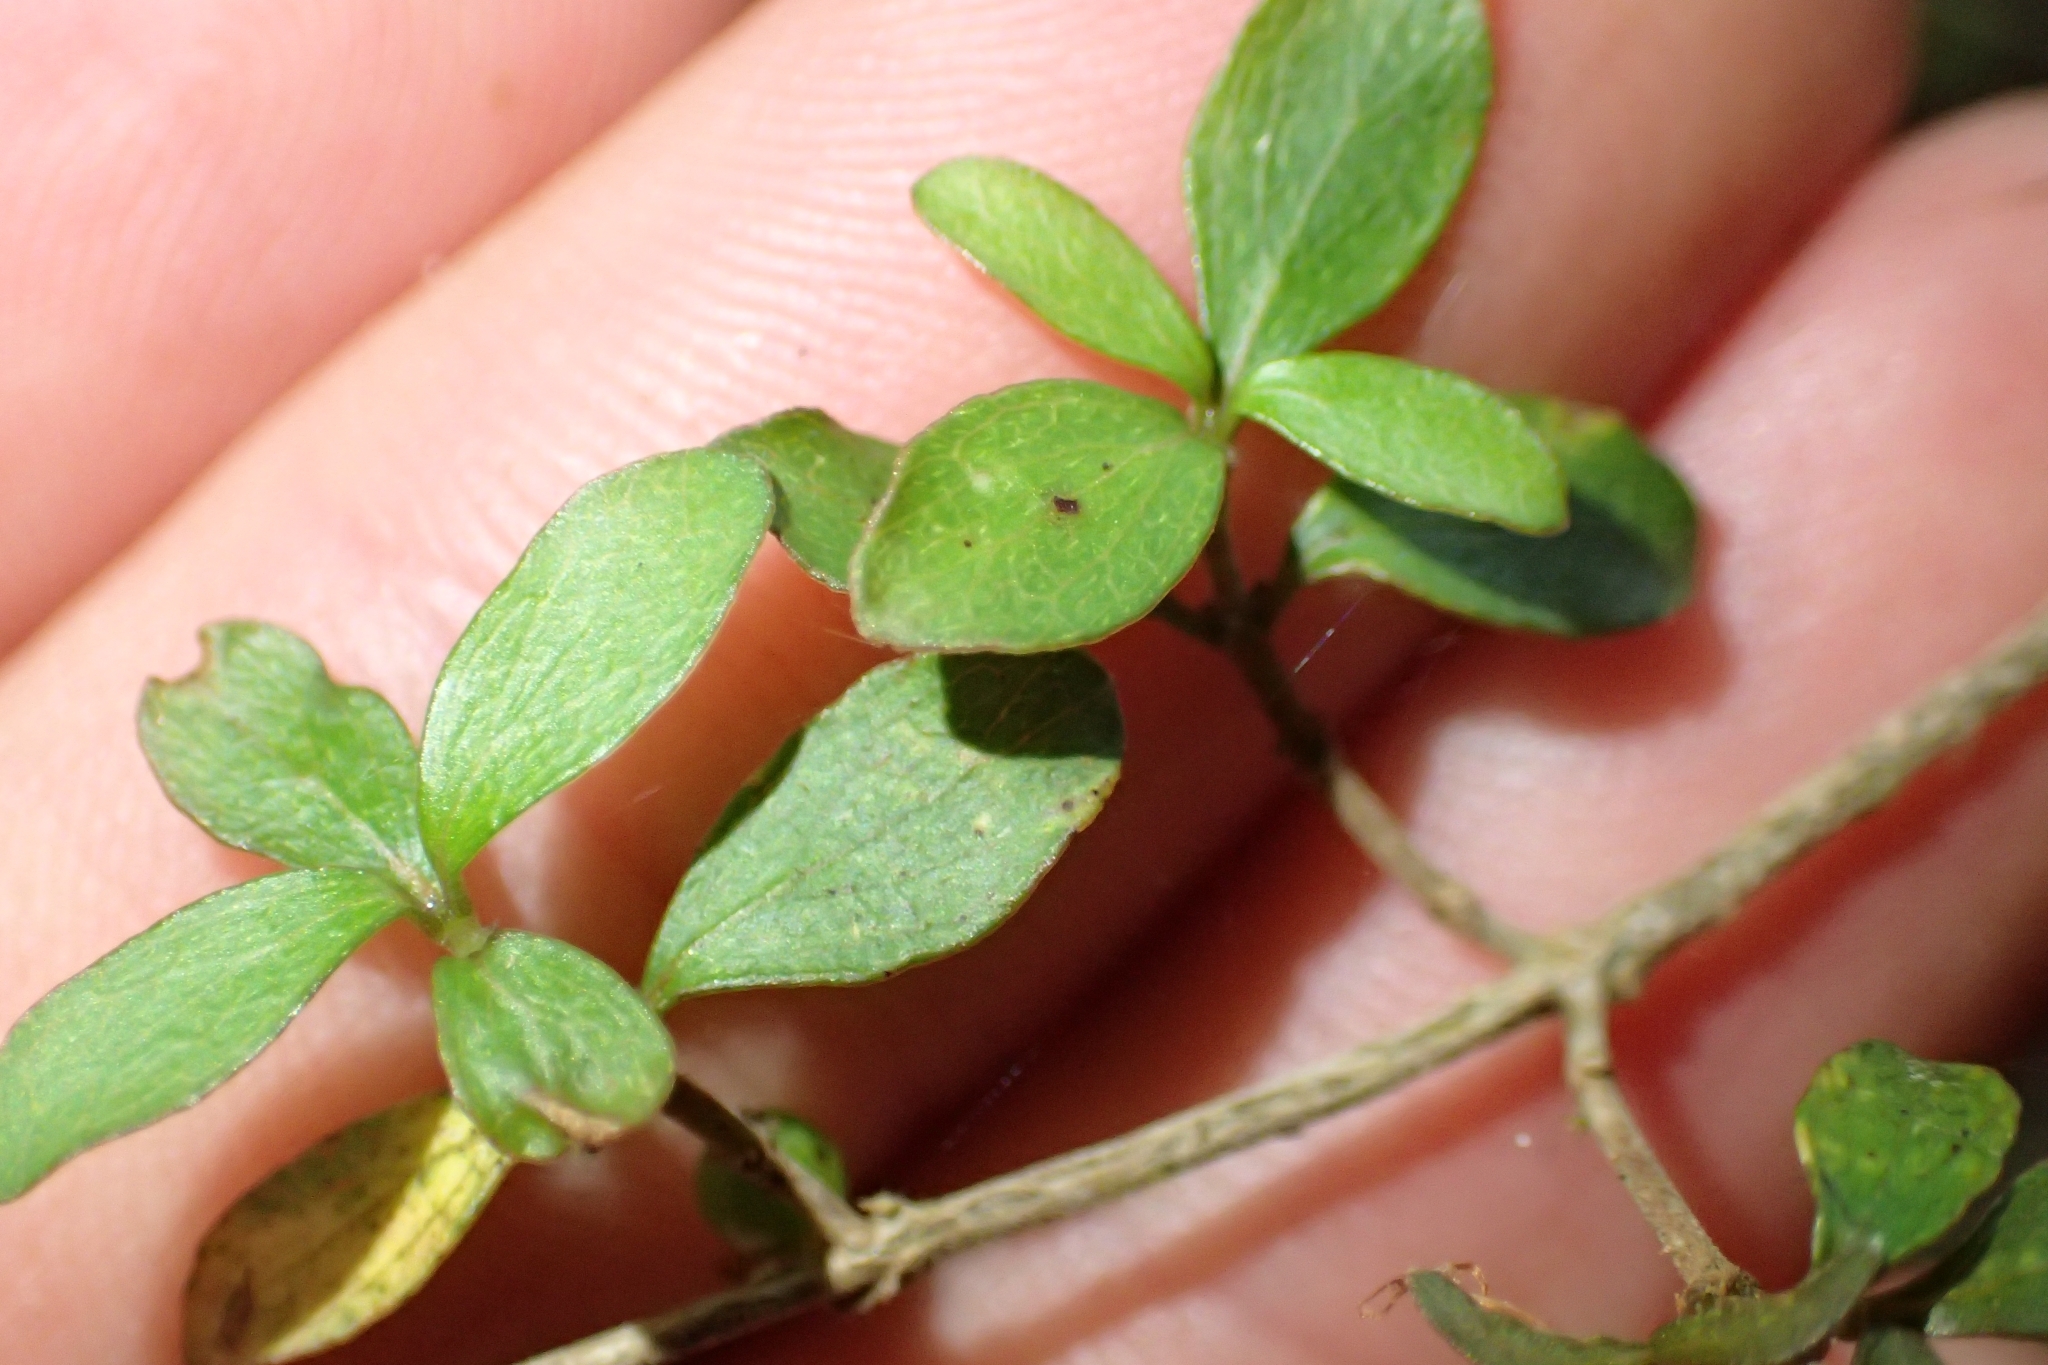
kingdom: Plantae
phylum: Tracheophyta
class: Magnoliopsida
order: Gentianales
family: Rubiaceae
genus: Coprosma
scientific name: Coprosma rhamnoides
